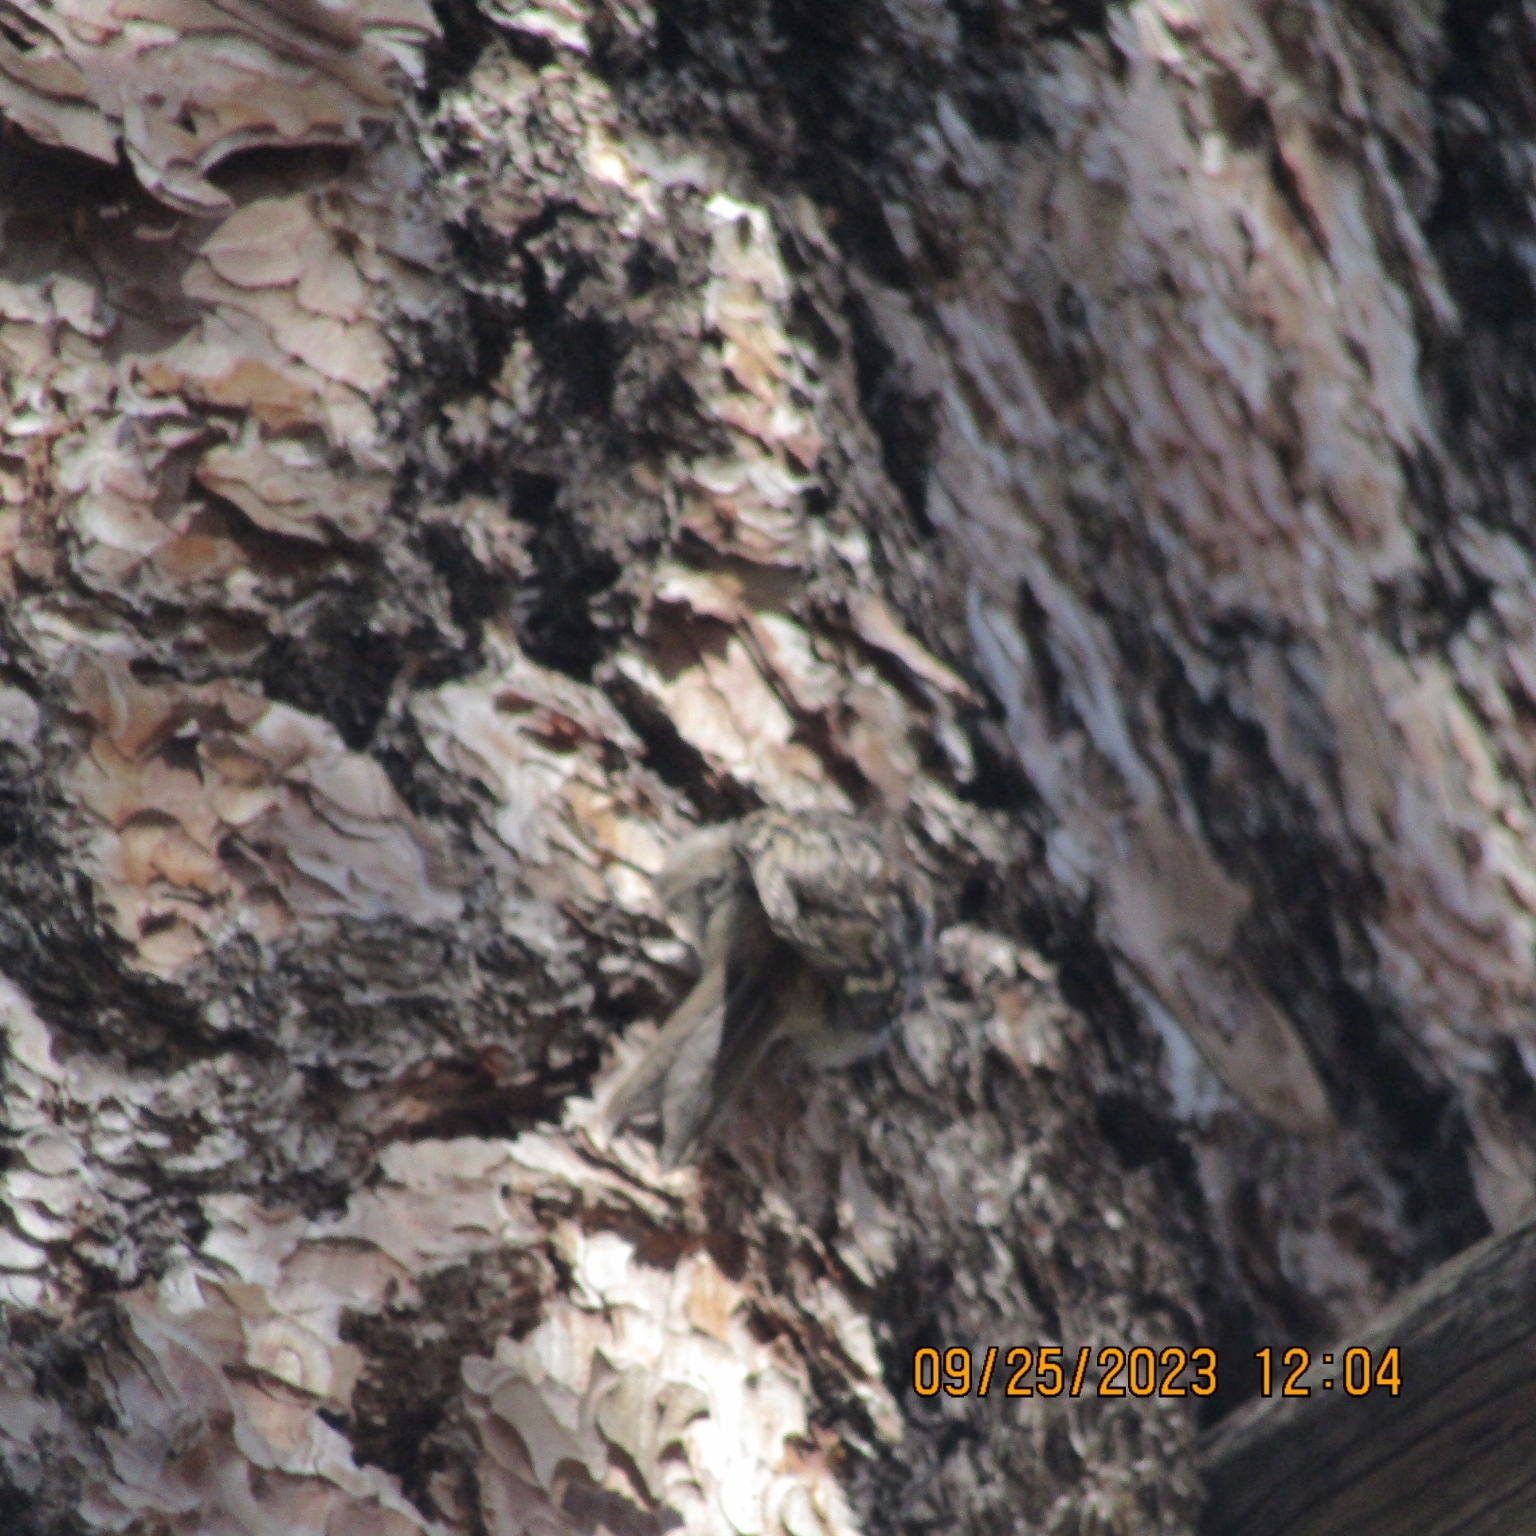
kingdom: Animalia
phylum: Chordata
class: Aves
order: Passeriformes
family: Certhiidae
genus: Certhia
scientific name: Certhia americana
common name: Brown creeper
